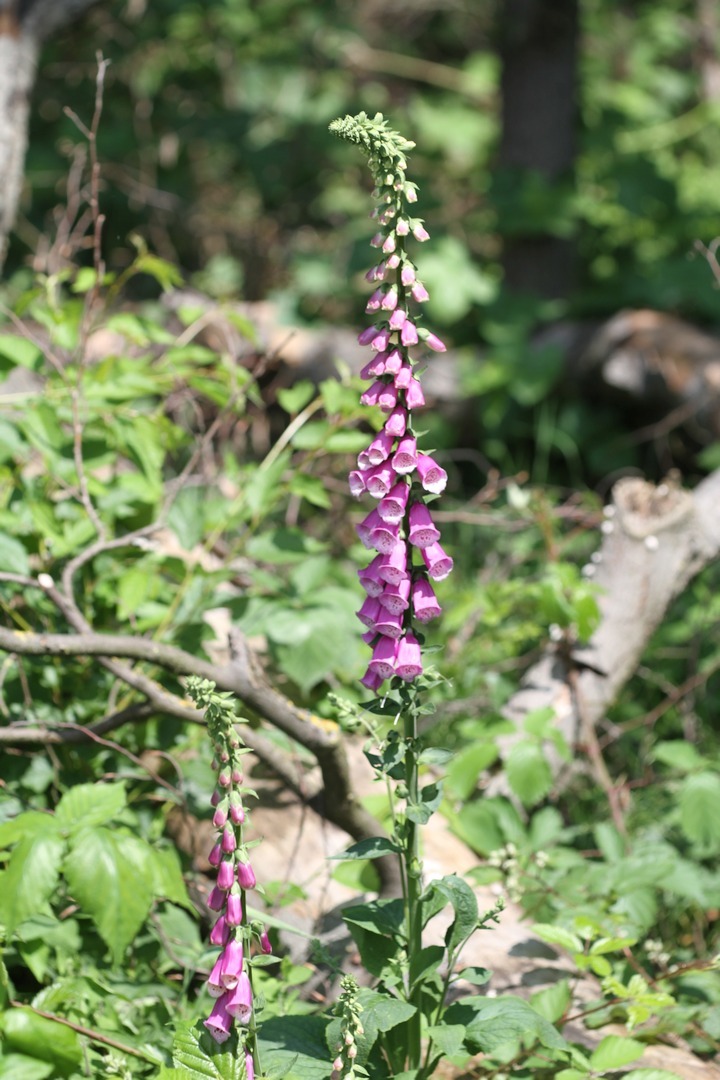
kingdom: Plantae
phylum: Tracheophyta
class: Magnoliopsida
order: Lamiales
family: Plantaginaceae
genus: Digitalis
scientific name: Digitalis purpurea
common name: Foxglove
